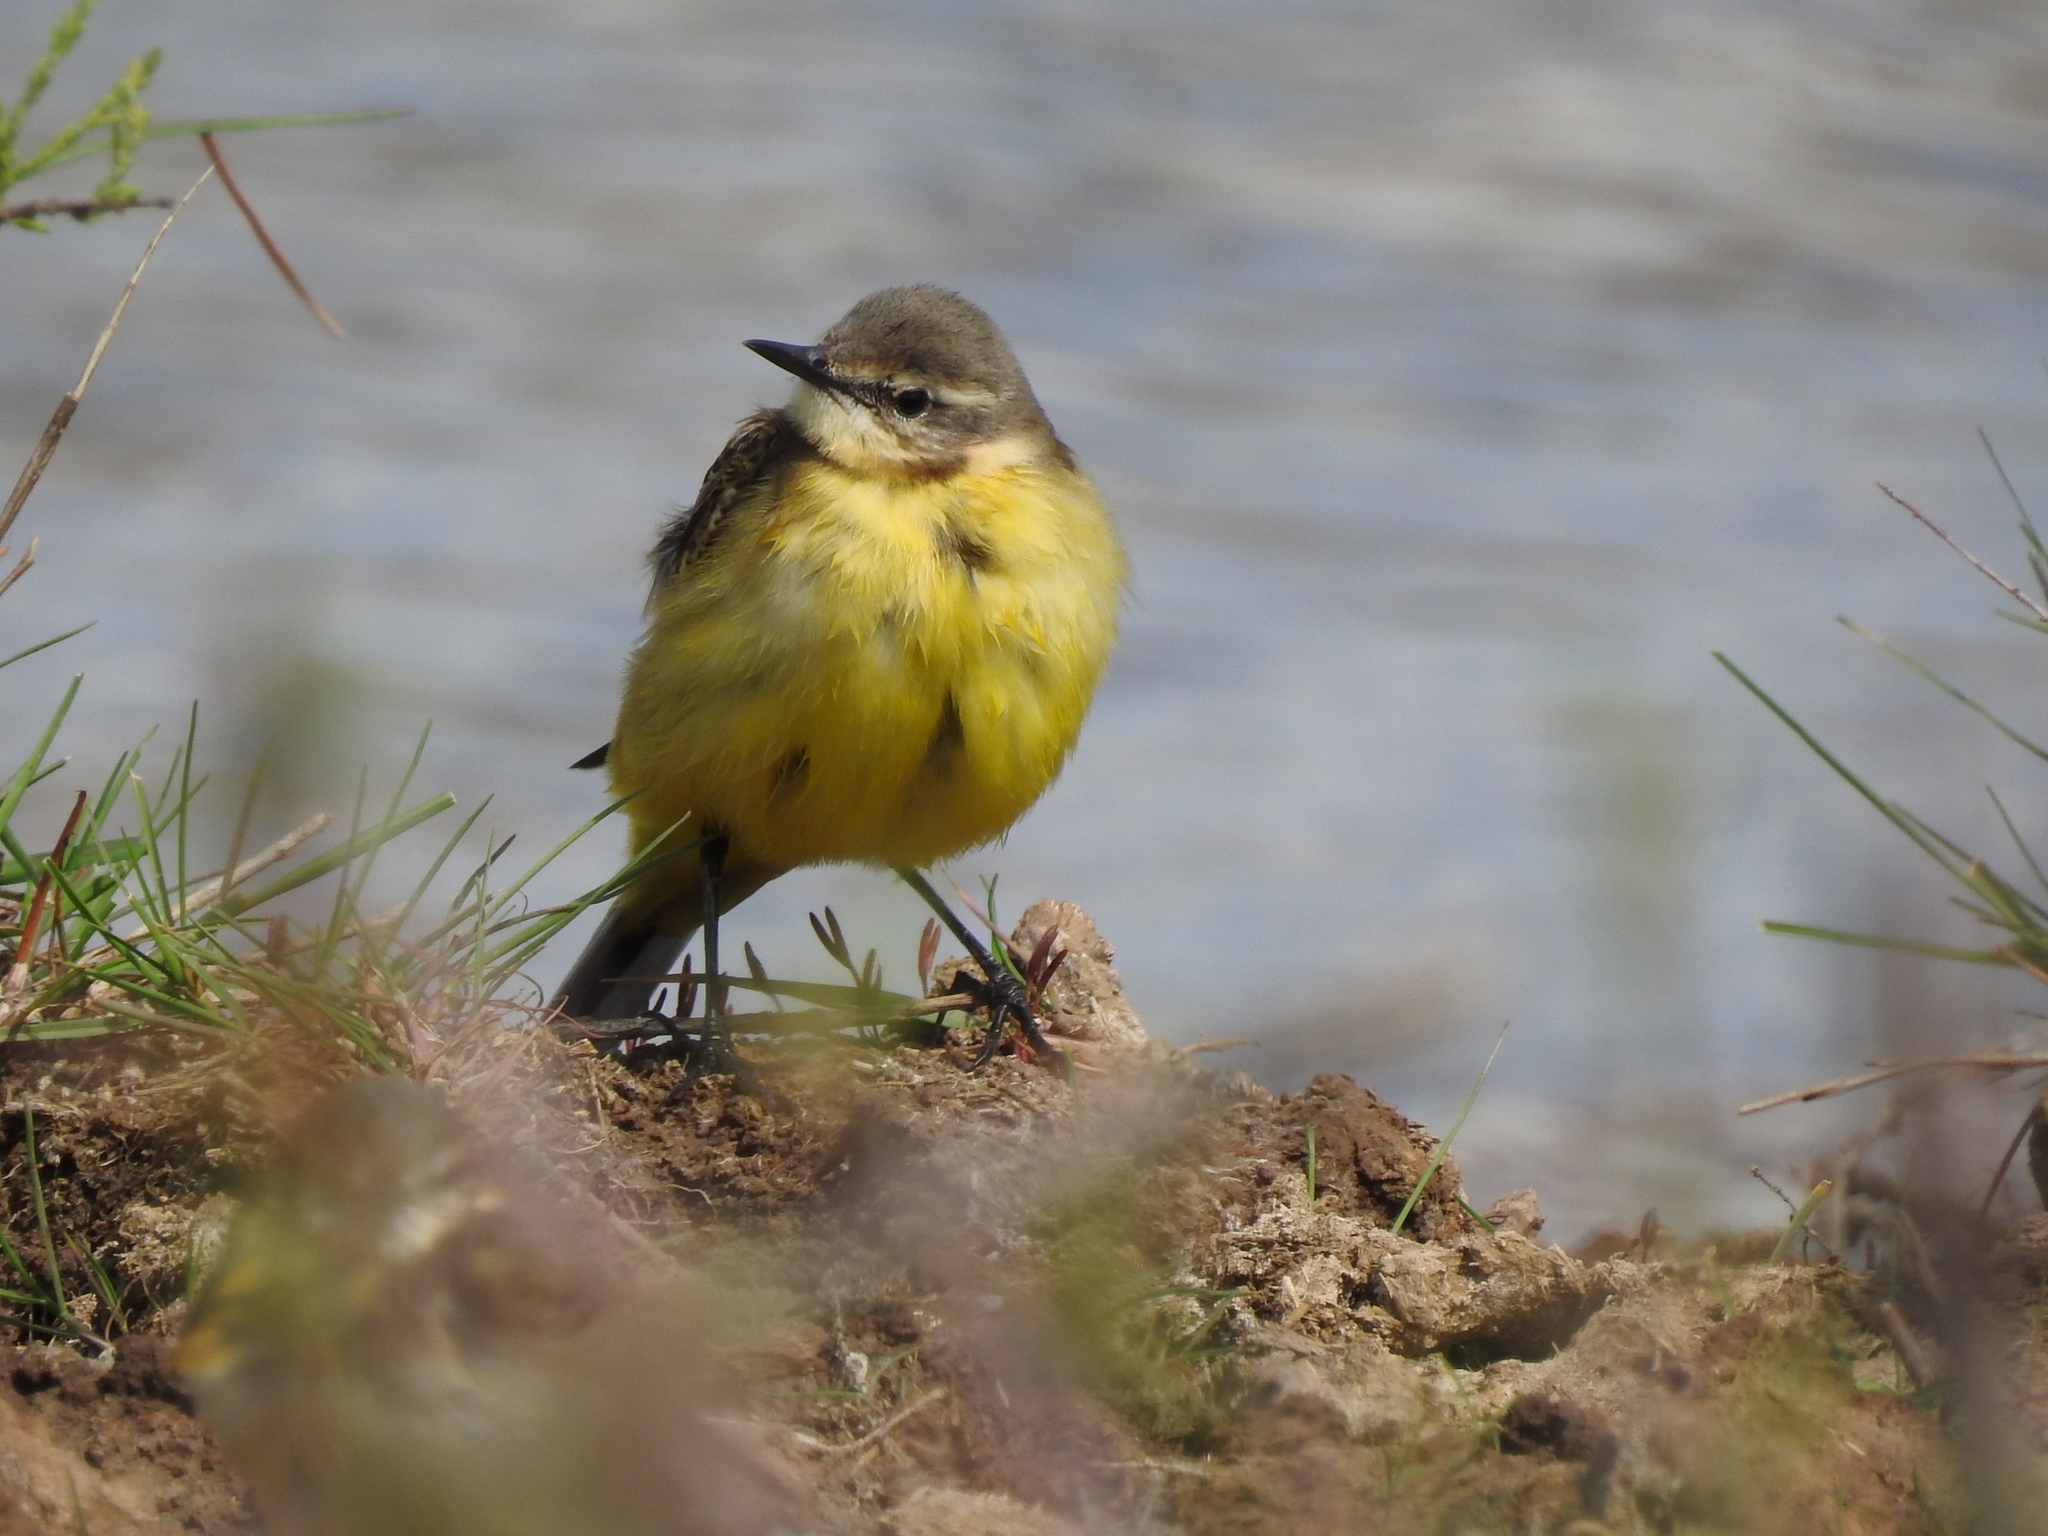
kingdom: Animalia
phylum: Chordata
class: Aves
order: Passeriformes
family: Motacillidae
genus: Motacilla
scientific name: Motacilla flava
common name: Western yellow wagtail
